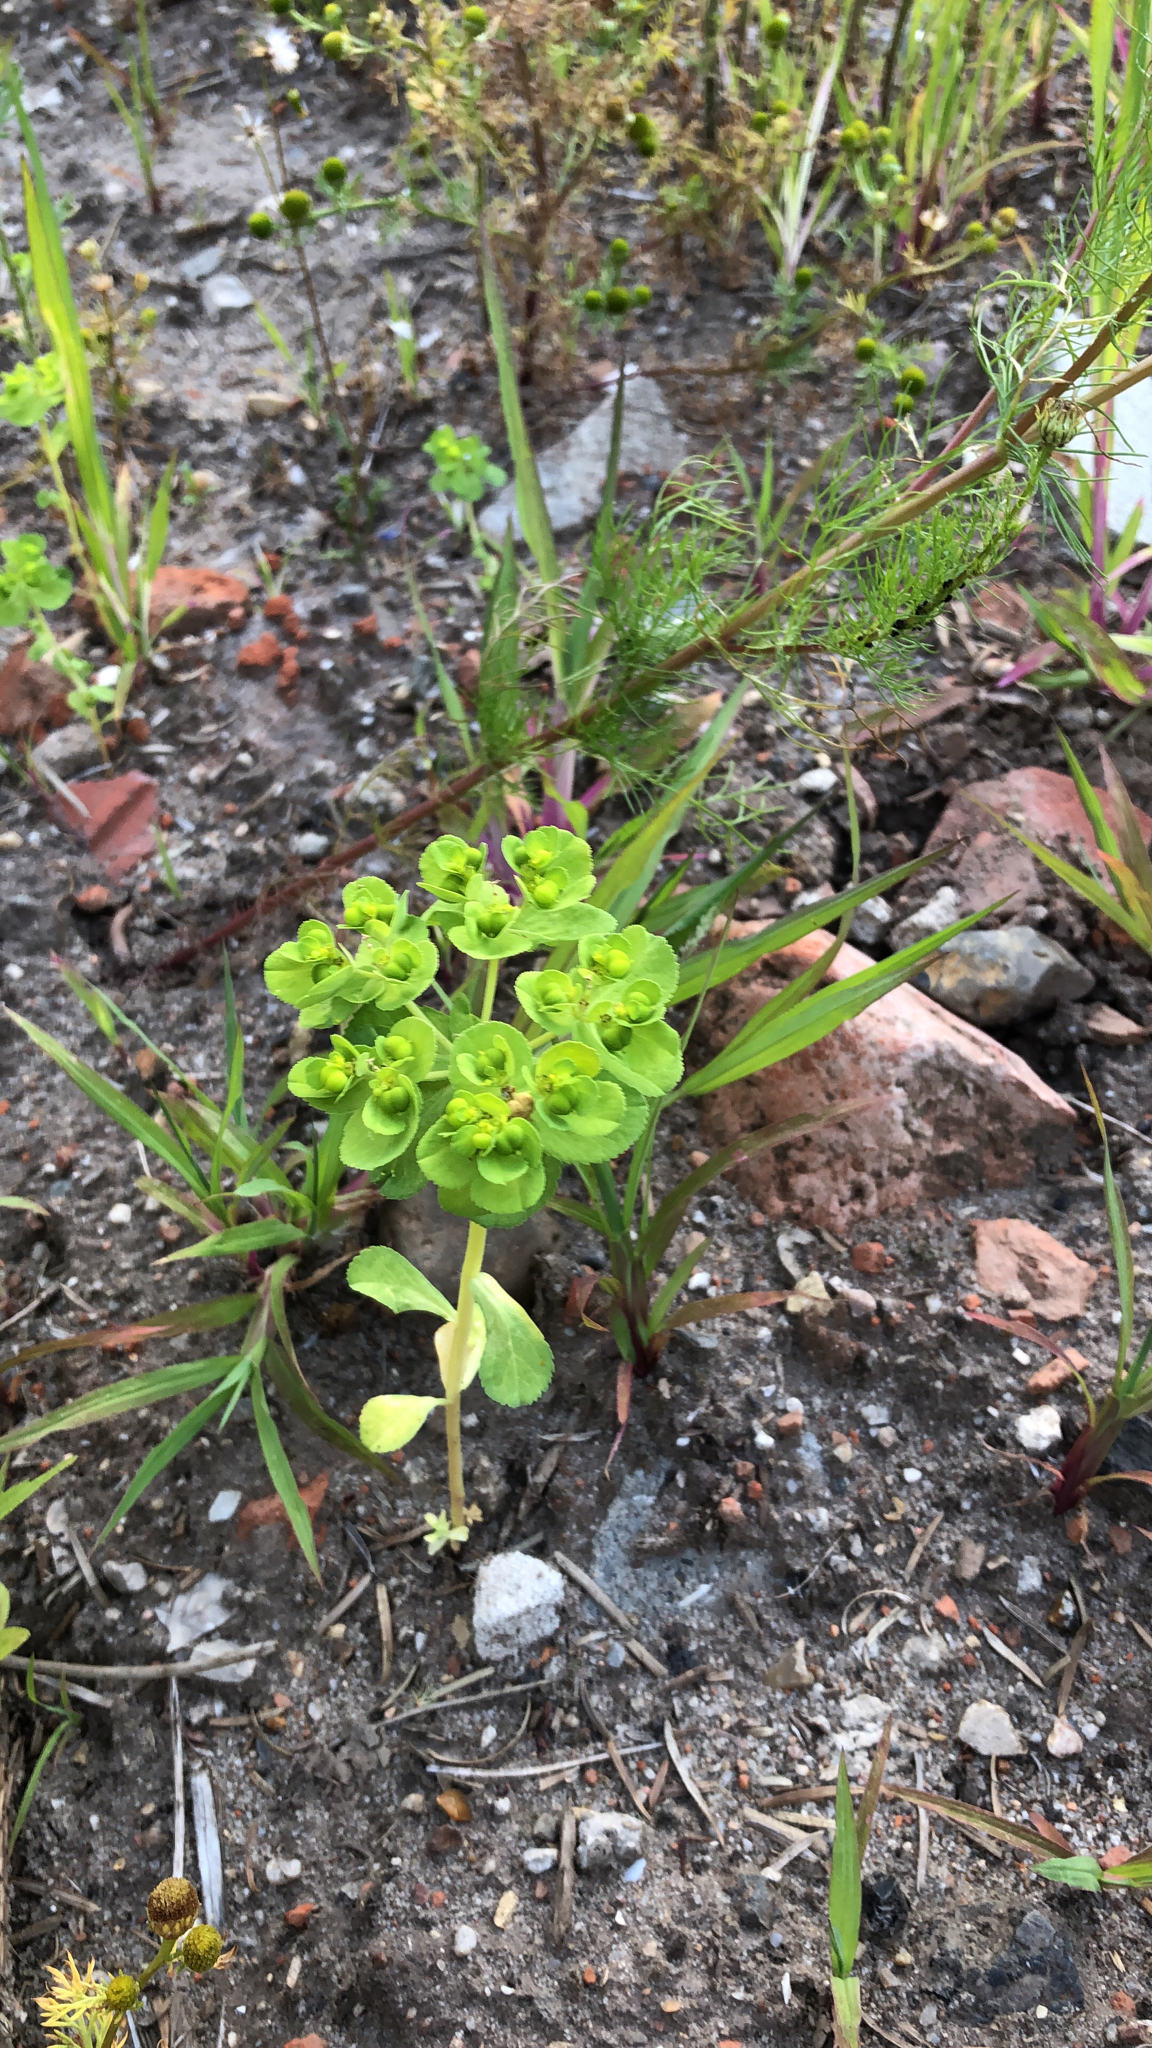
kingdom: Plantae
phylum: Tracheophyta
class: Magnoliopsida
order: Malpighiales
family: Euphorbiaceae
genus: Euphorbia
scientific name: Euphorbia helioscopia
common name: Sun spurge
